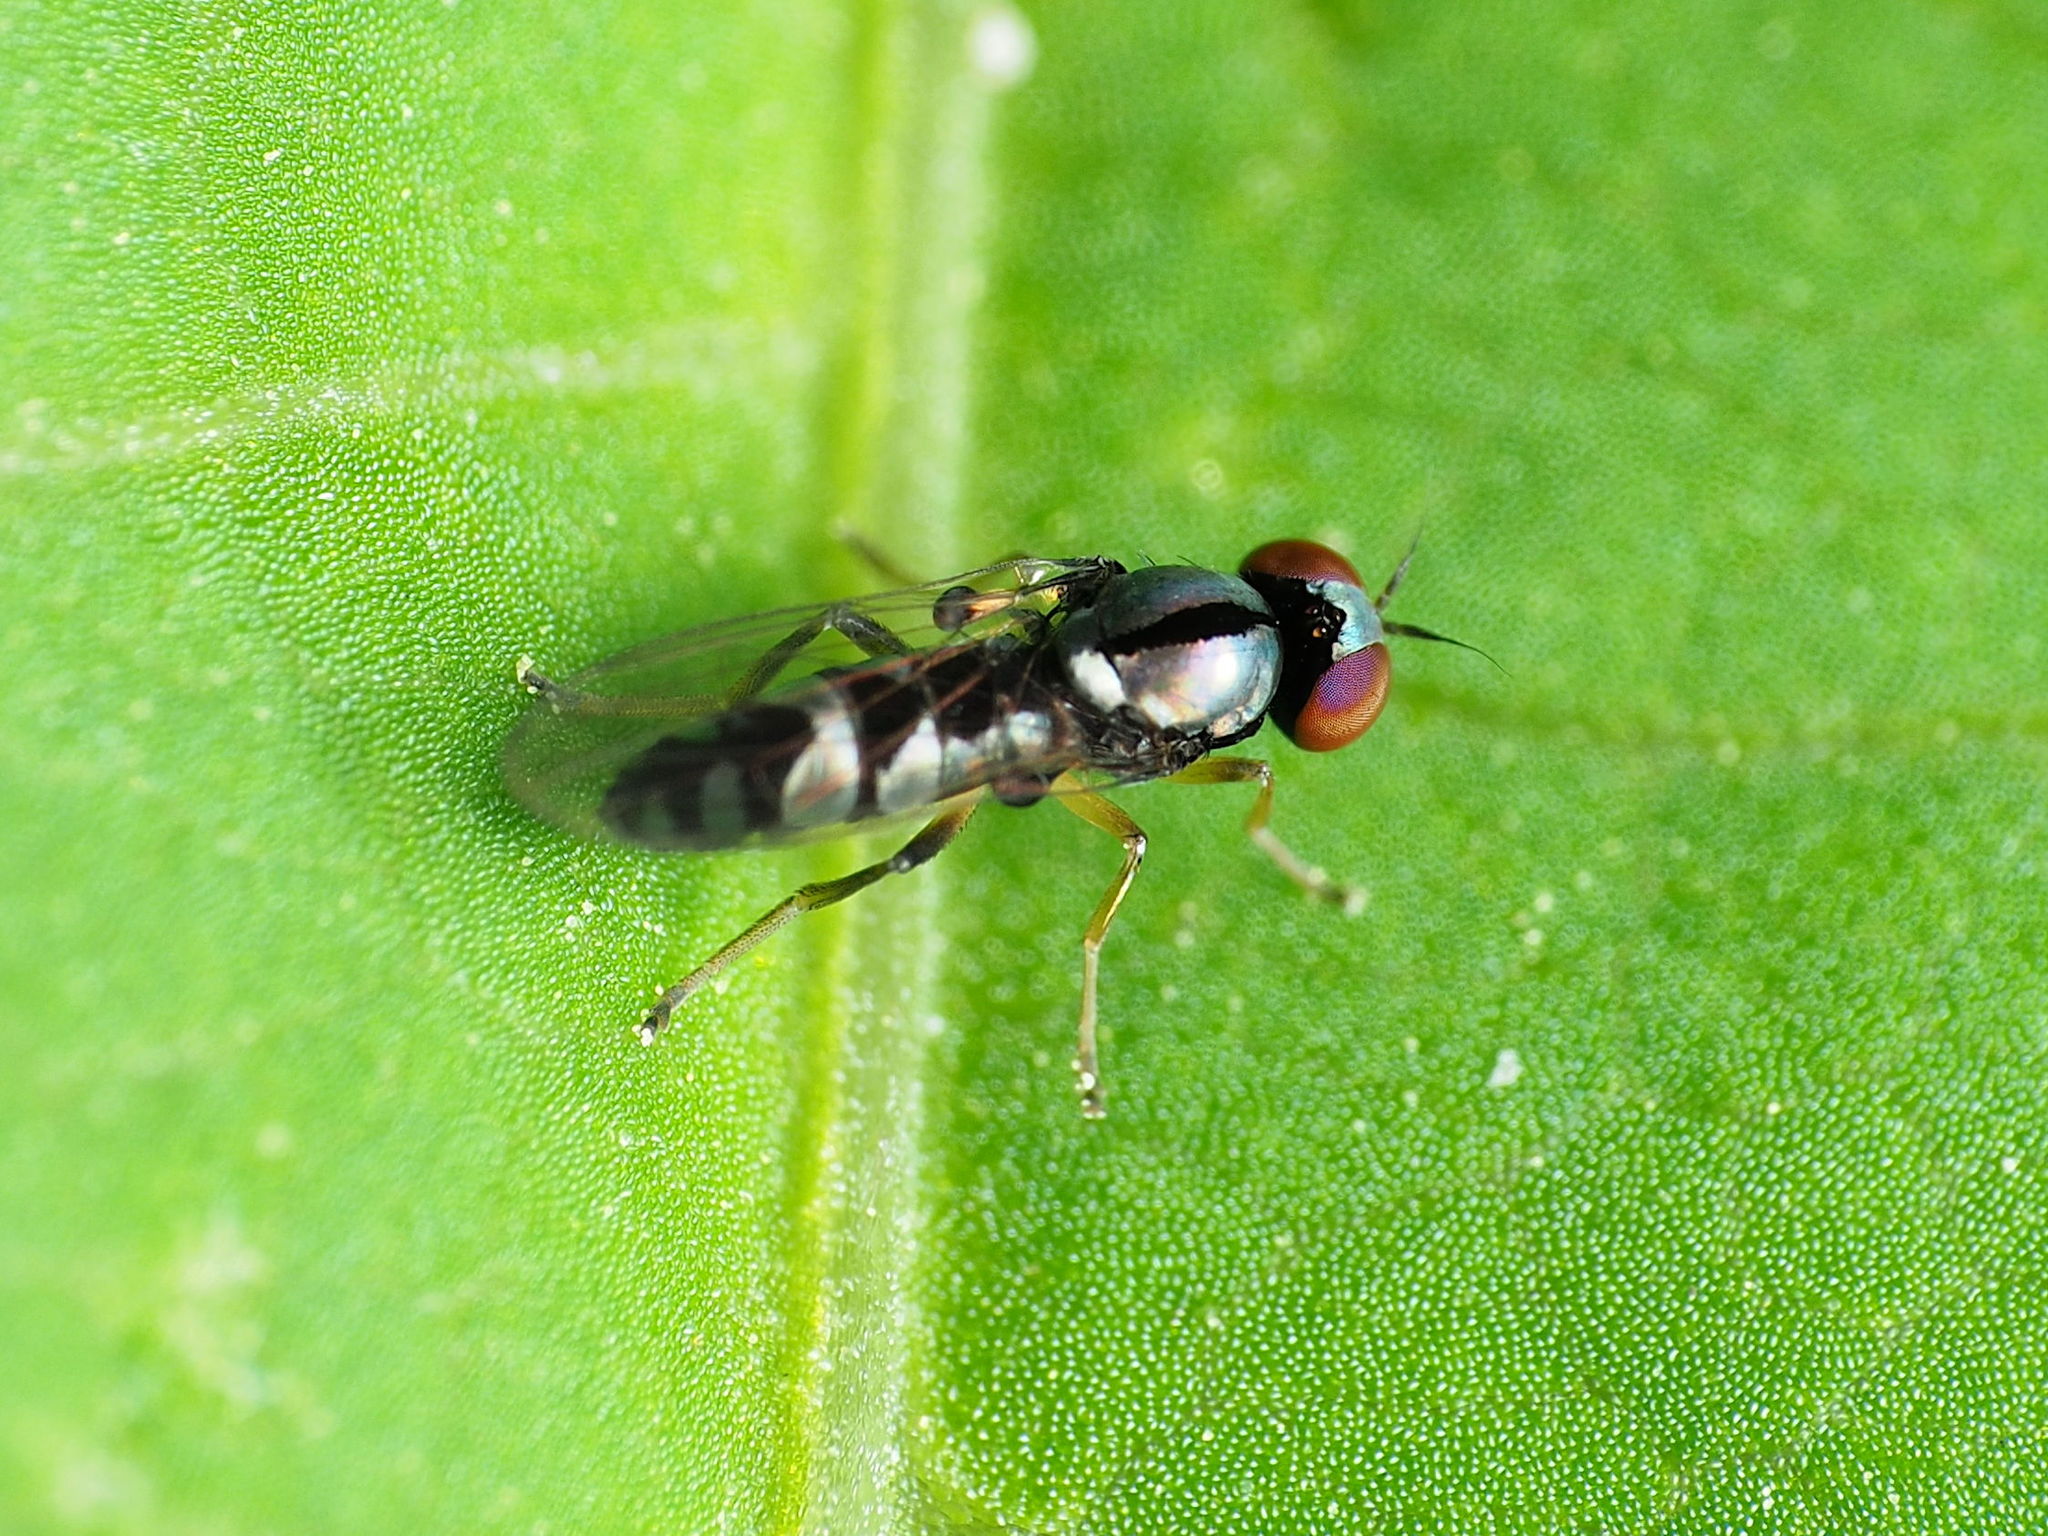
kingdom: Animalia
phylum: Arthropoda
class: Insecta
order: Diptera
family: Platypezidae
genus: Bertamyia
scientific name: Bertamyia notata
